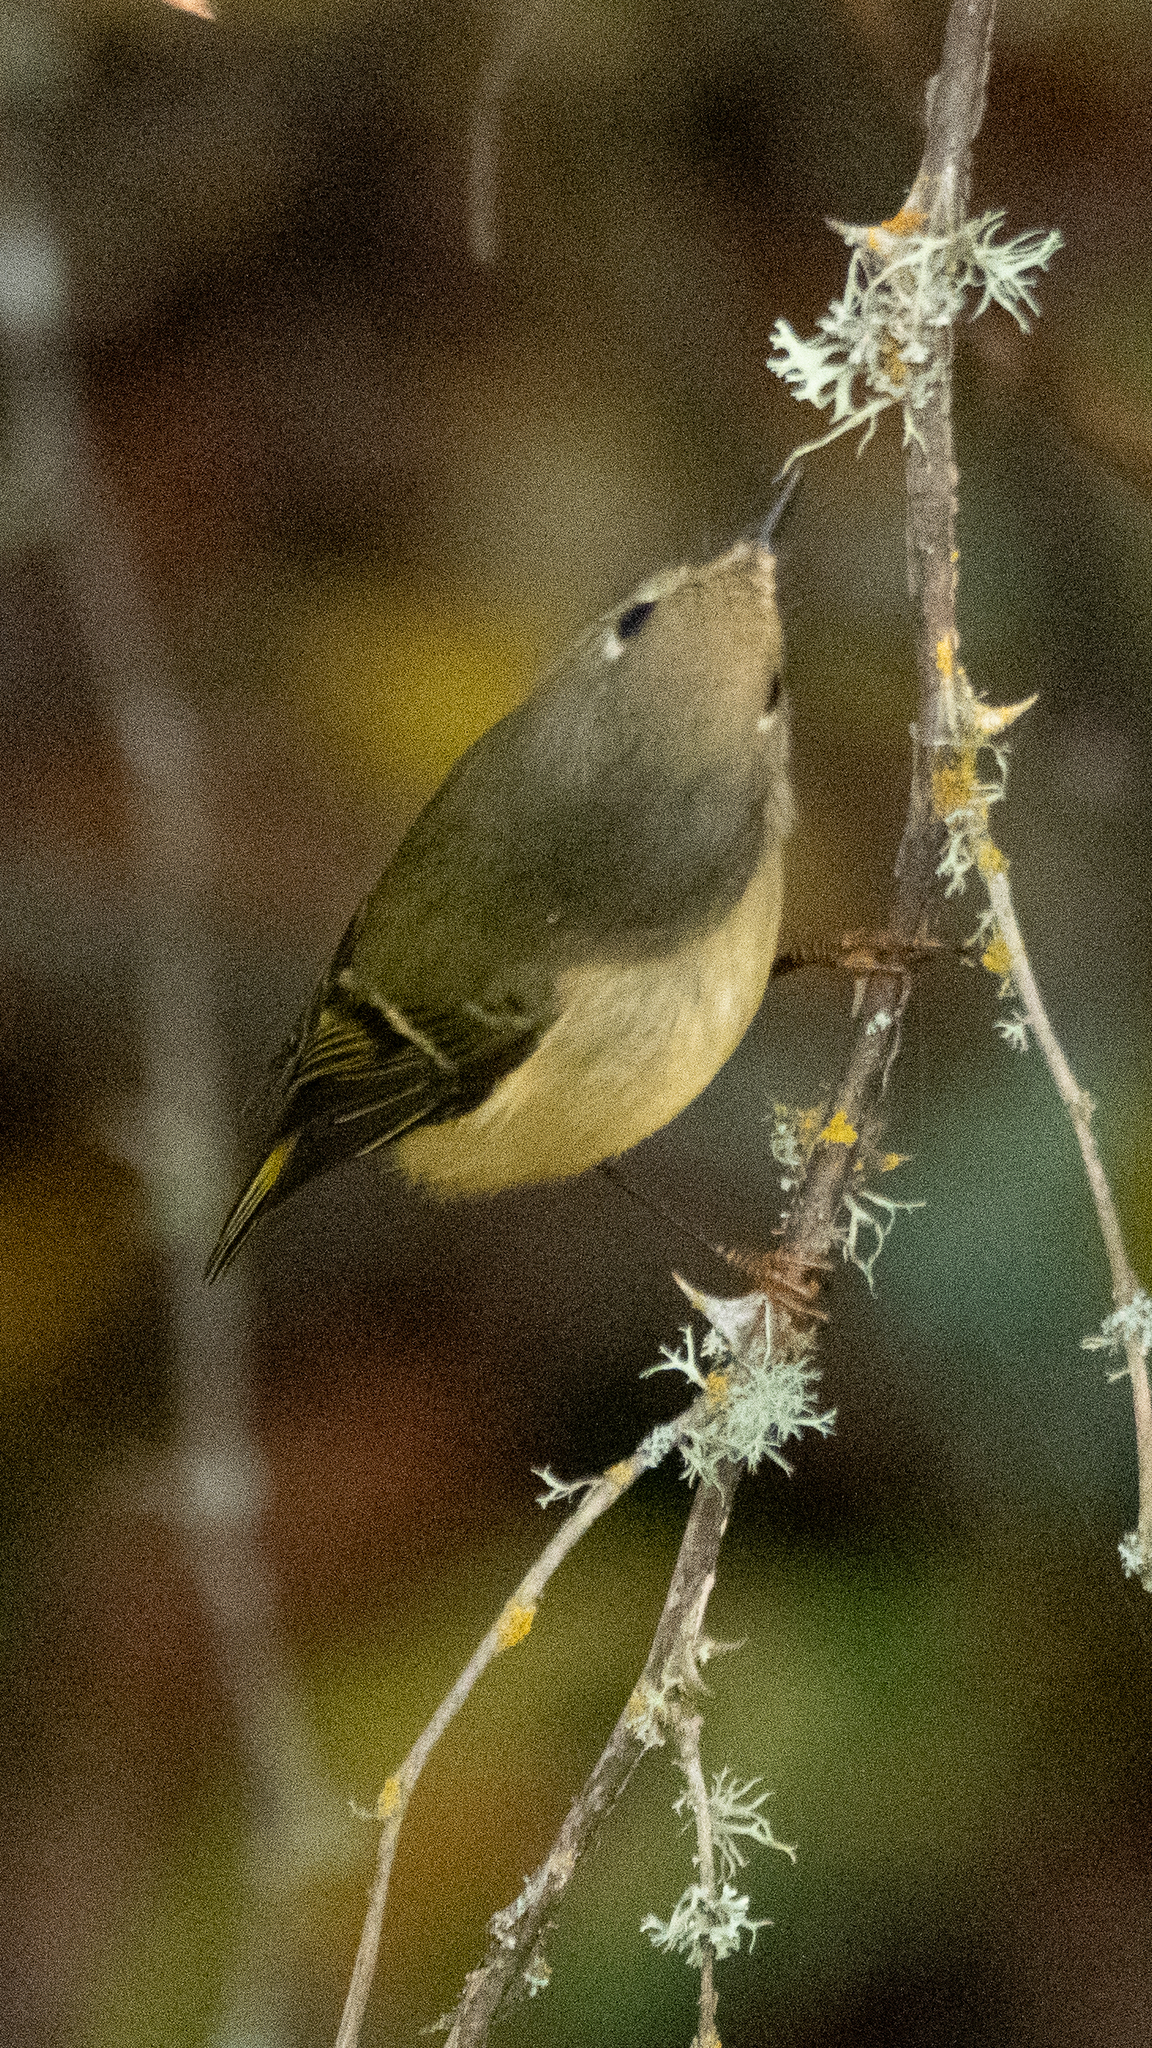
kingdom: Animalia
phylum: Chordata
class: Aves
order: Passeriformes
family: Regulidae
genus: Regulus
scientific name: Regulus calendula
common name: Ruby-crowned kinglet
